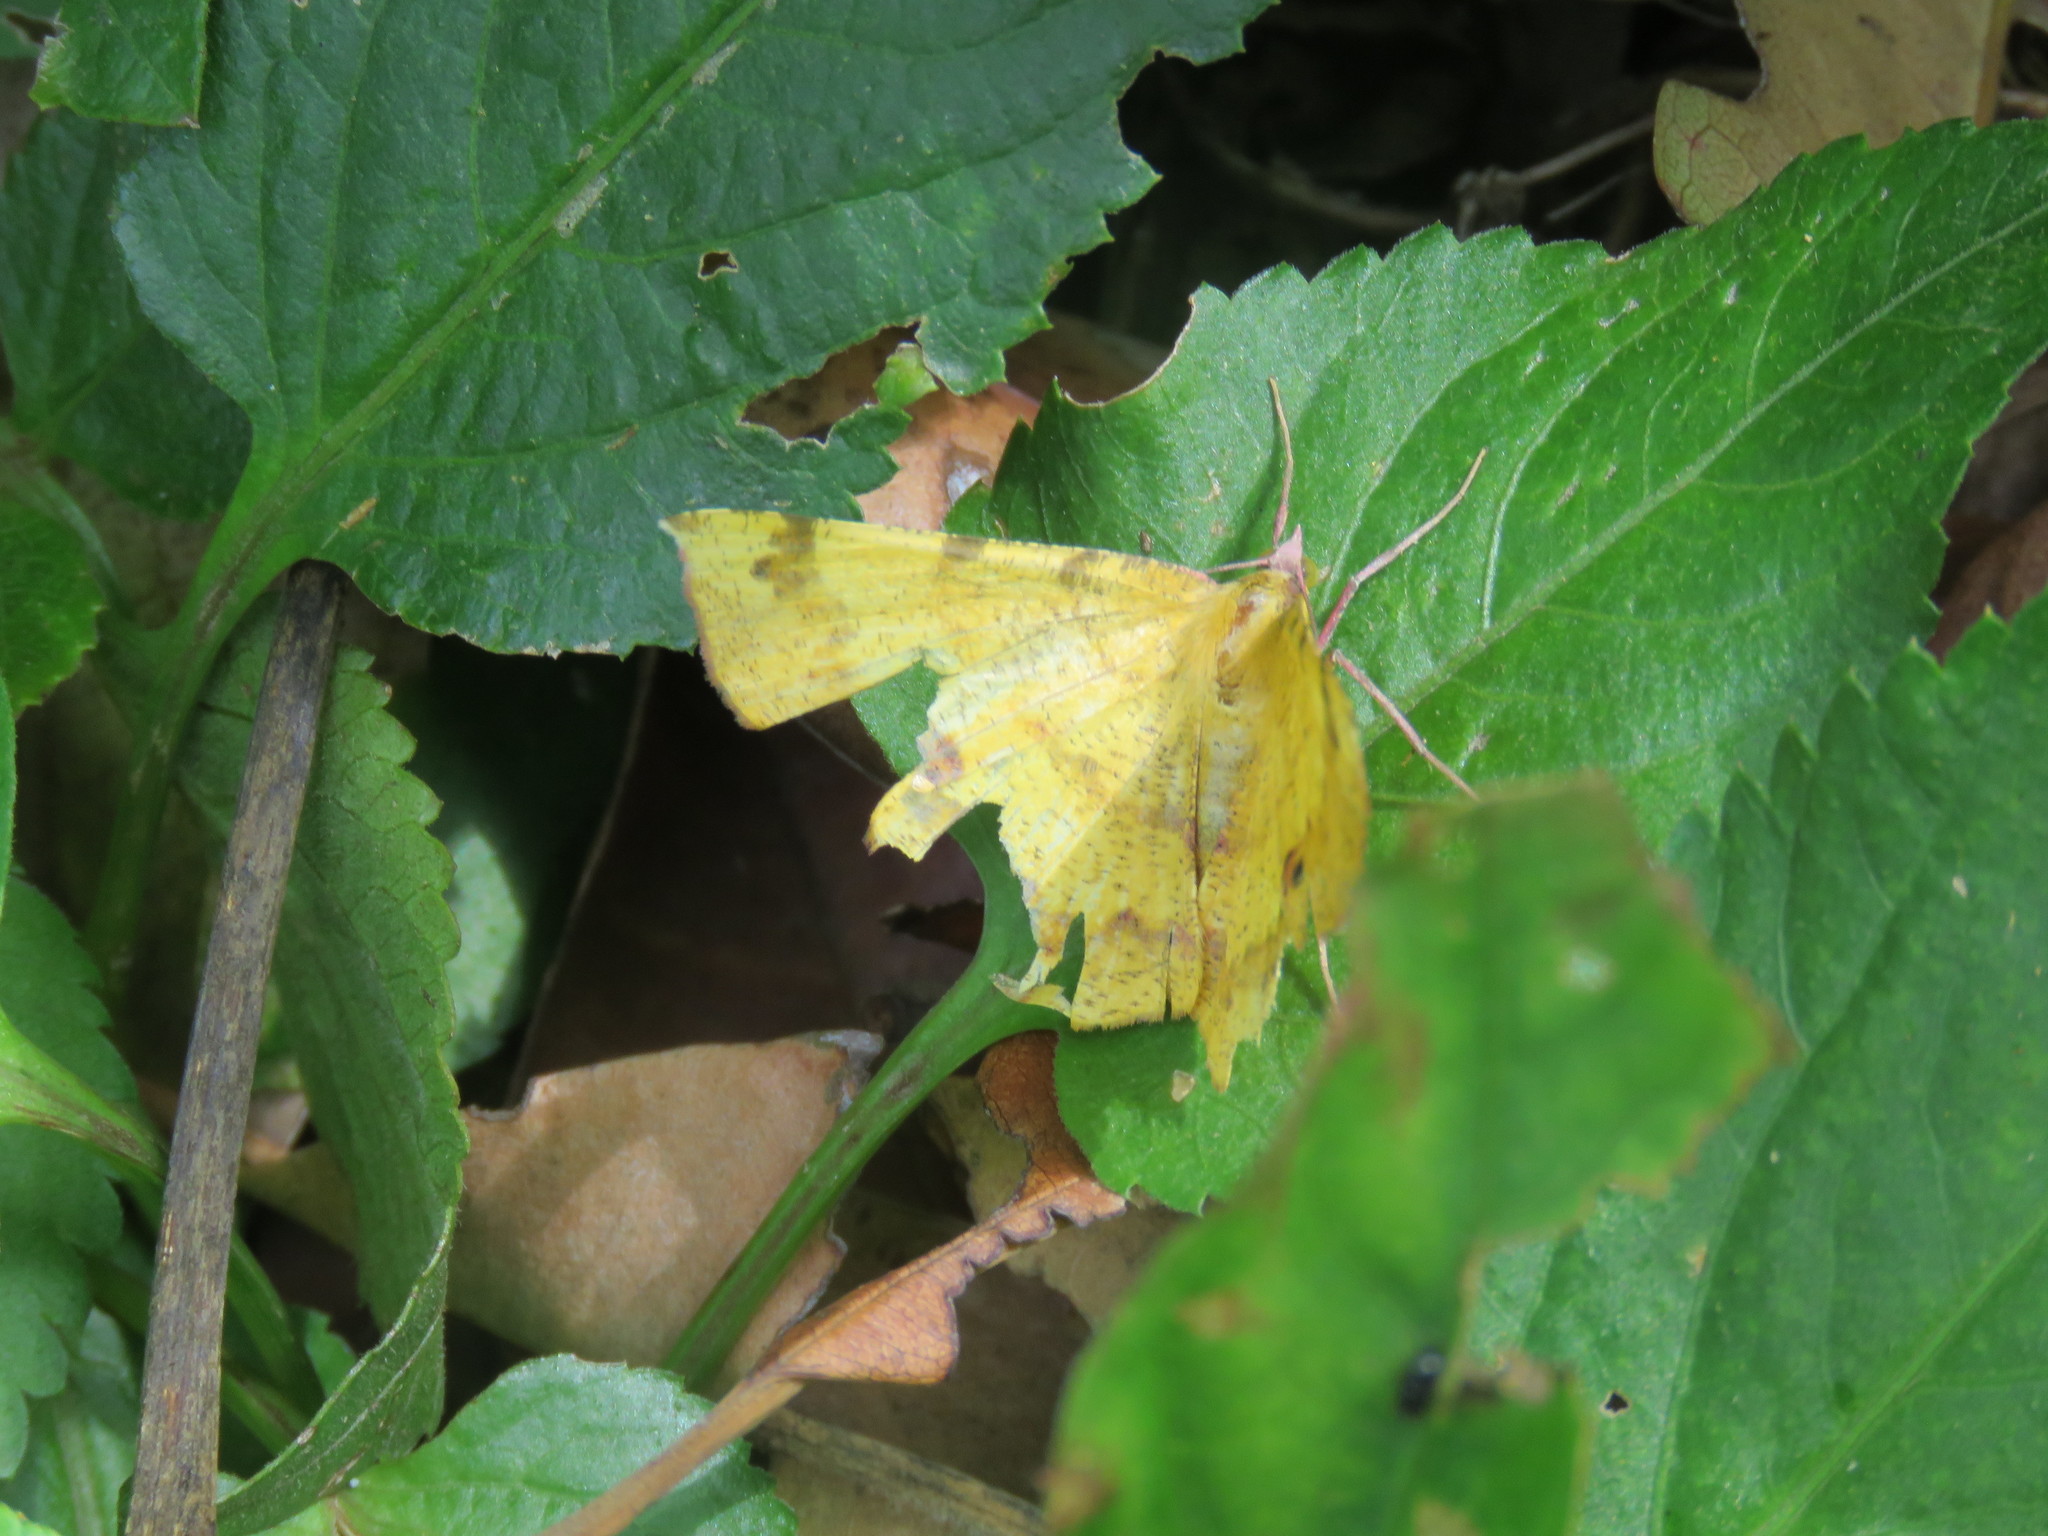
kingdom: Animalia
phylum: Arthropoda
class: Insecta
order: Lepidoptera
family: Geometridae
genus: Erastria
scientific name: Erastria decrepitaria
